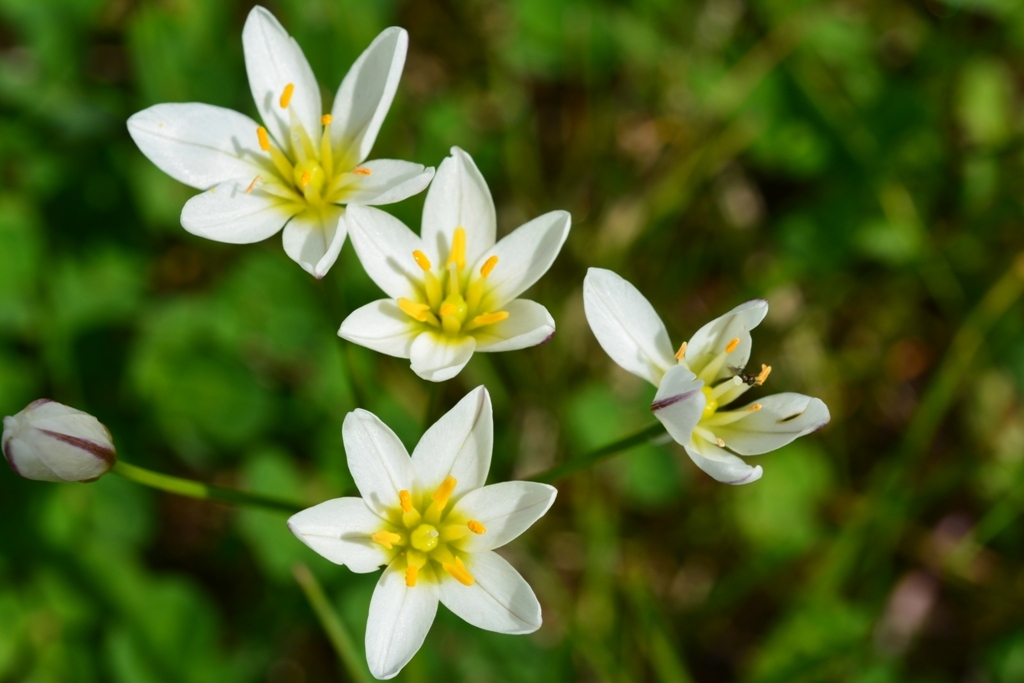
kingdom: Plantae
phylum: Tracheophyta
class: Liliopsida
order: Asparagales
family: Amaryllidaceae
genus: Nothoscordum
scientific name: Nothoscordum gracile
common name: Slender false garlic
